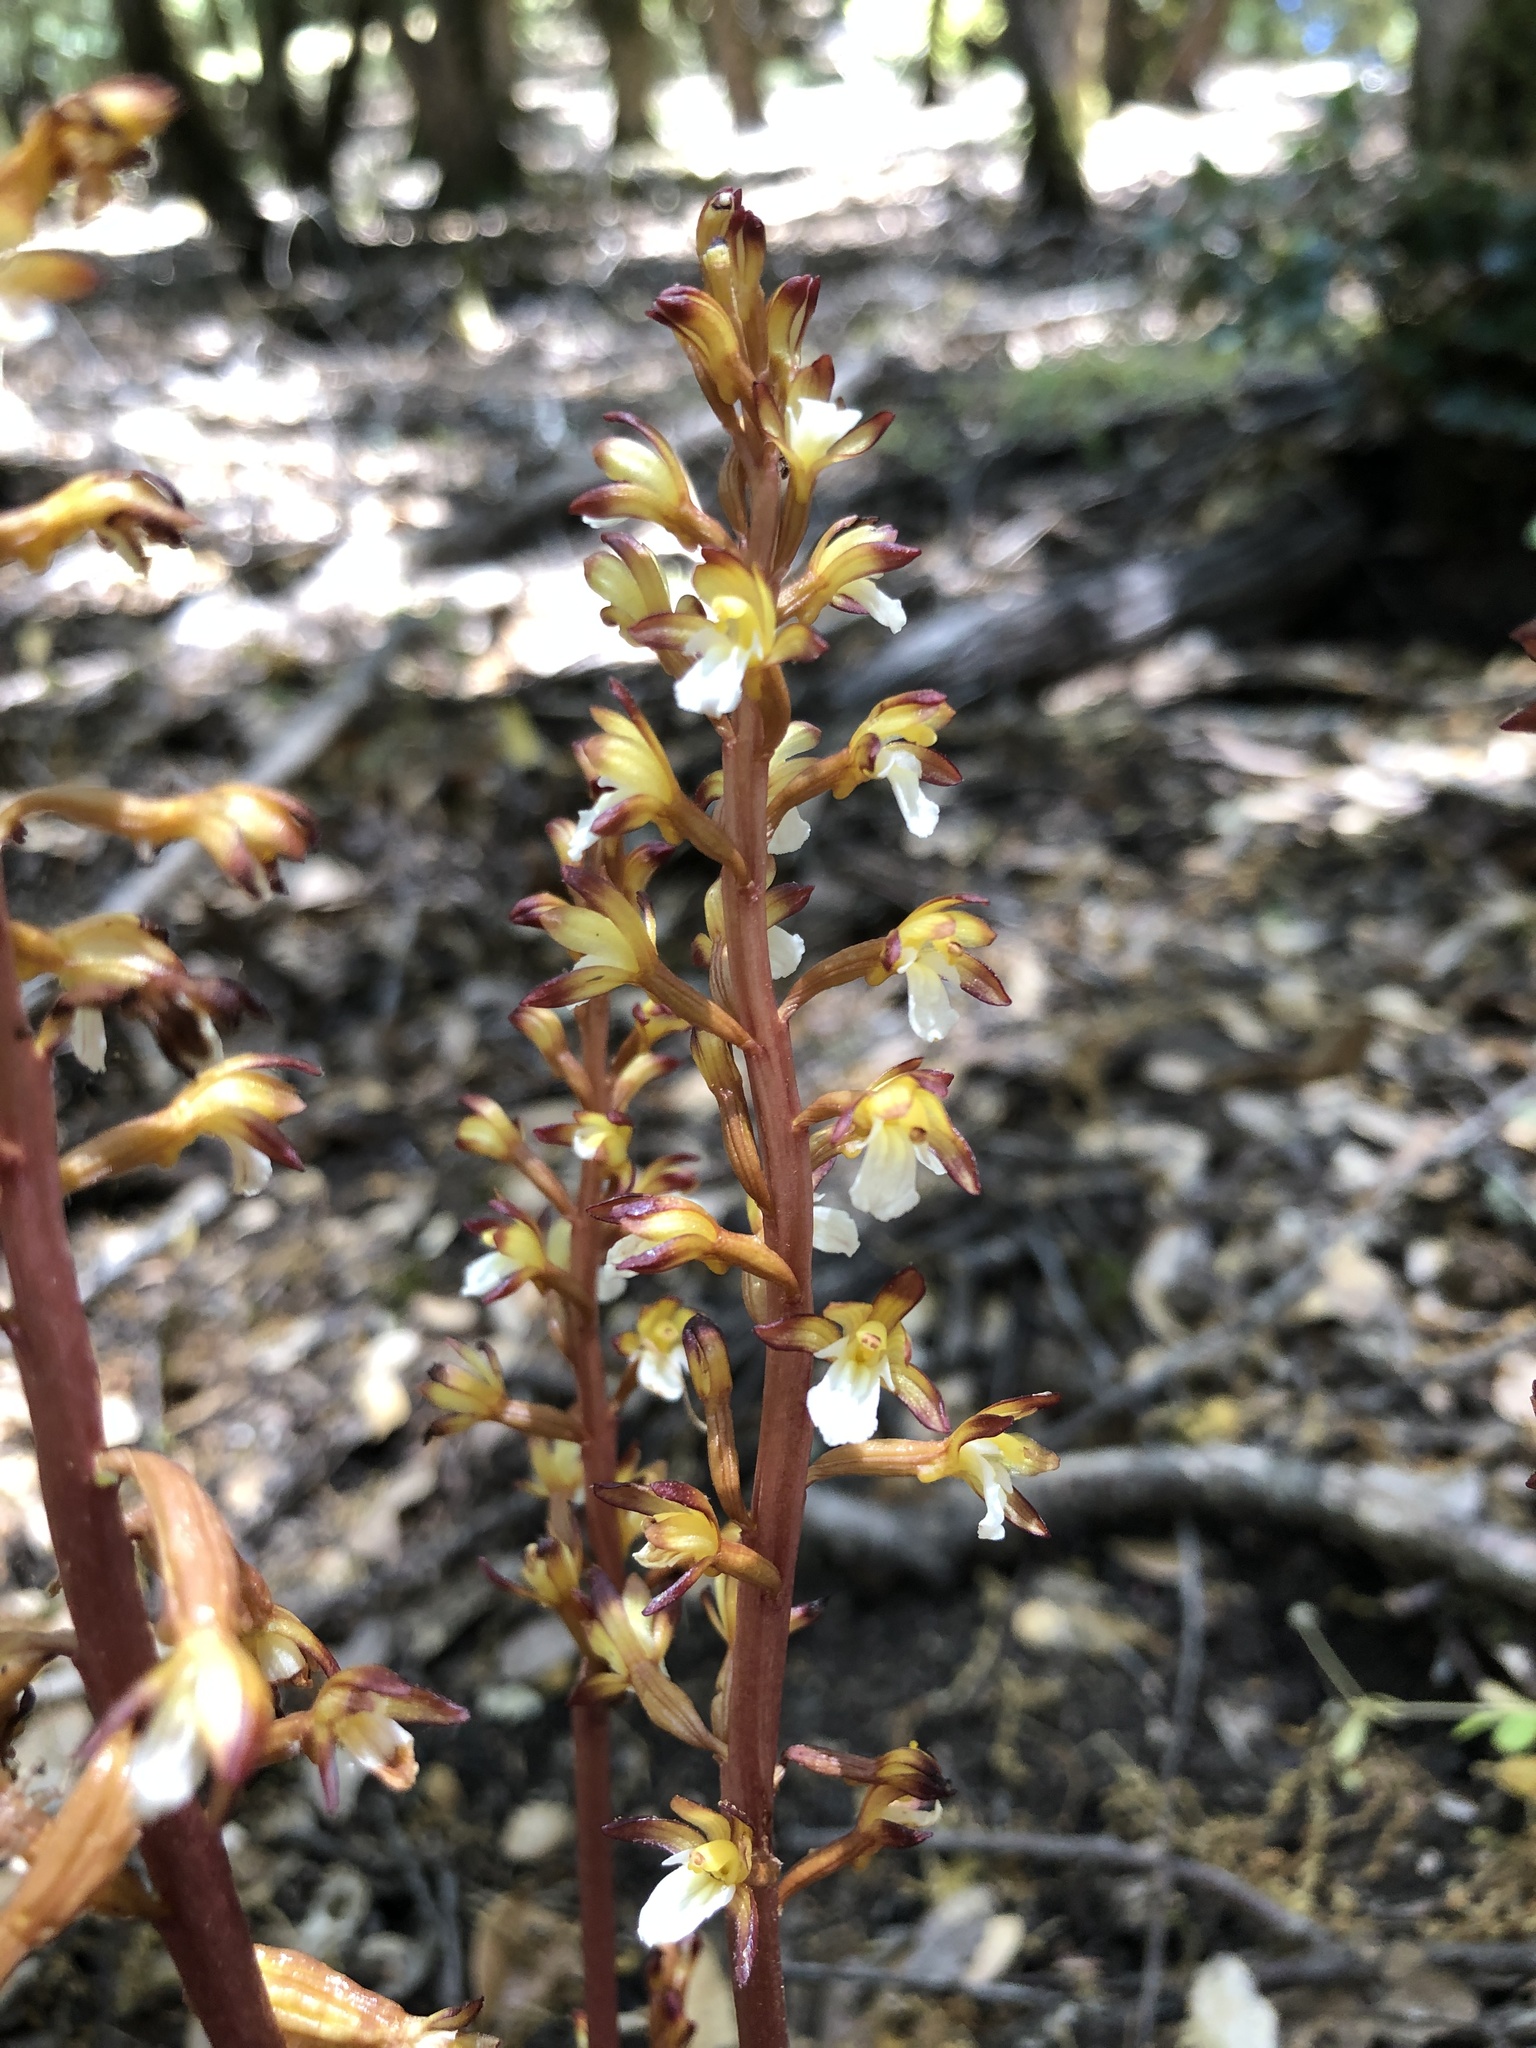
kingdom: Plantae
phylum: Tracheophyta
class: Liliopsida
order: Asparagales
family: Orchidaceae
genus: Corallorhiza
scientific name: Corallorhiza maculata
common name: Spotted coralroot
